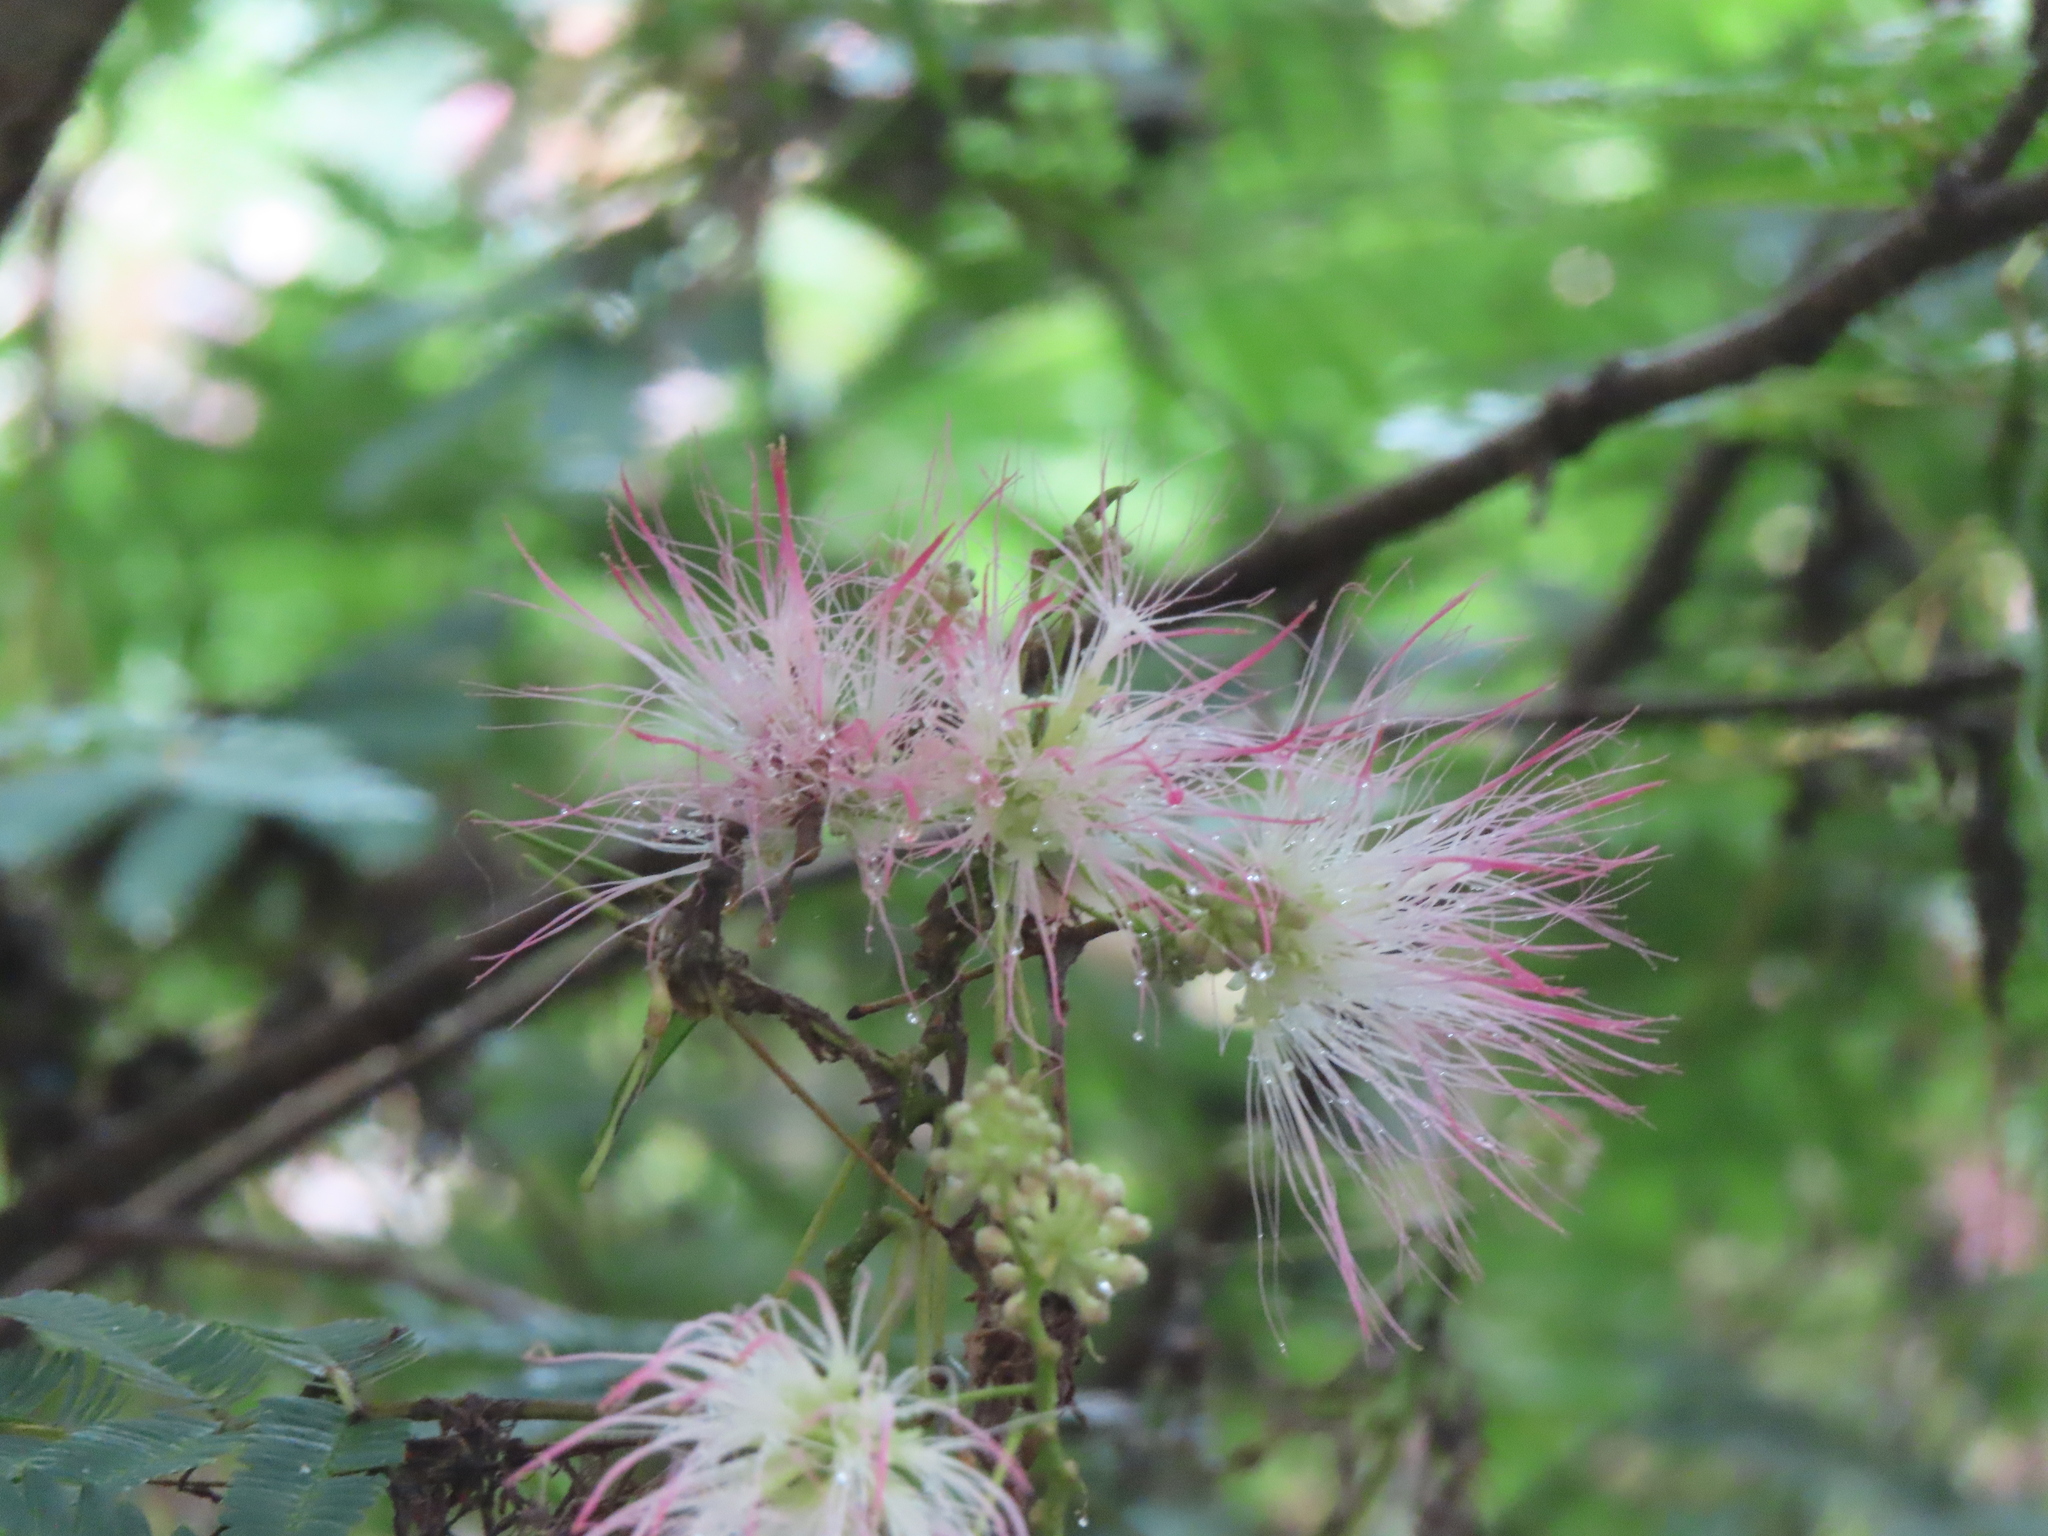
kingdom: Plantae
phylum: Tracheophyta
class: Magnoliopsida
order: Fabales
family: Fabaceae
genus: Albizia
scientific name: Albizia julibrissin
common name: Silktree
